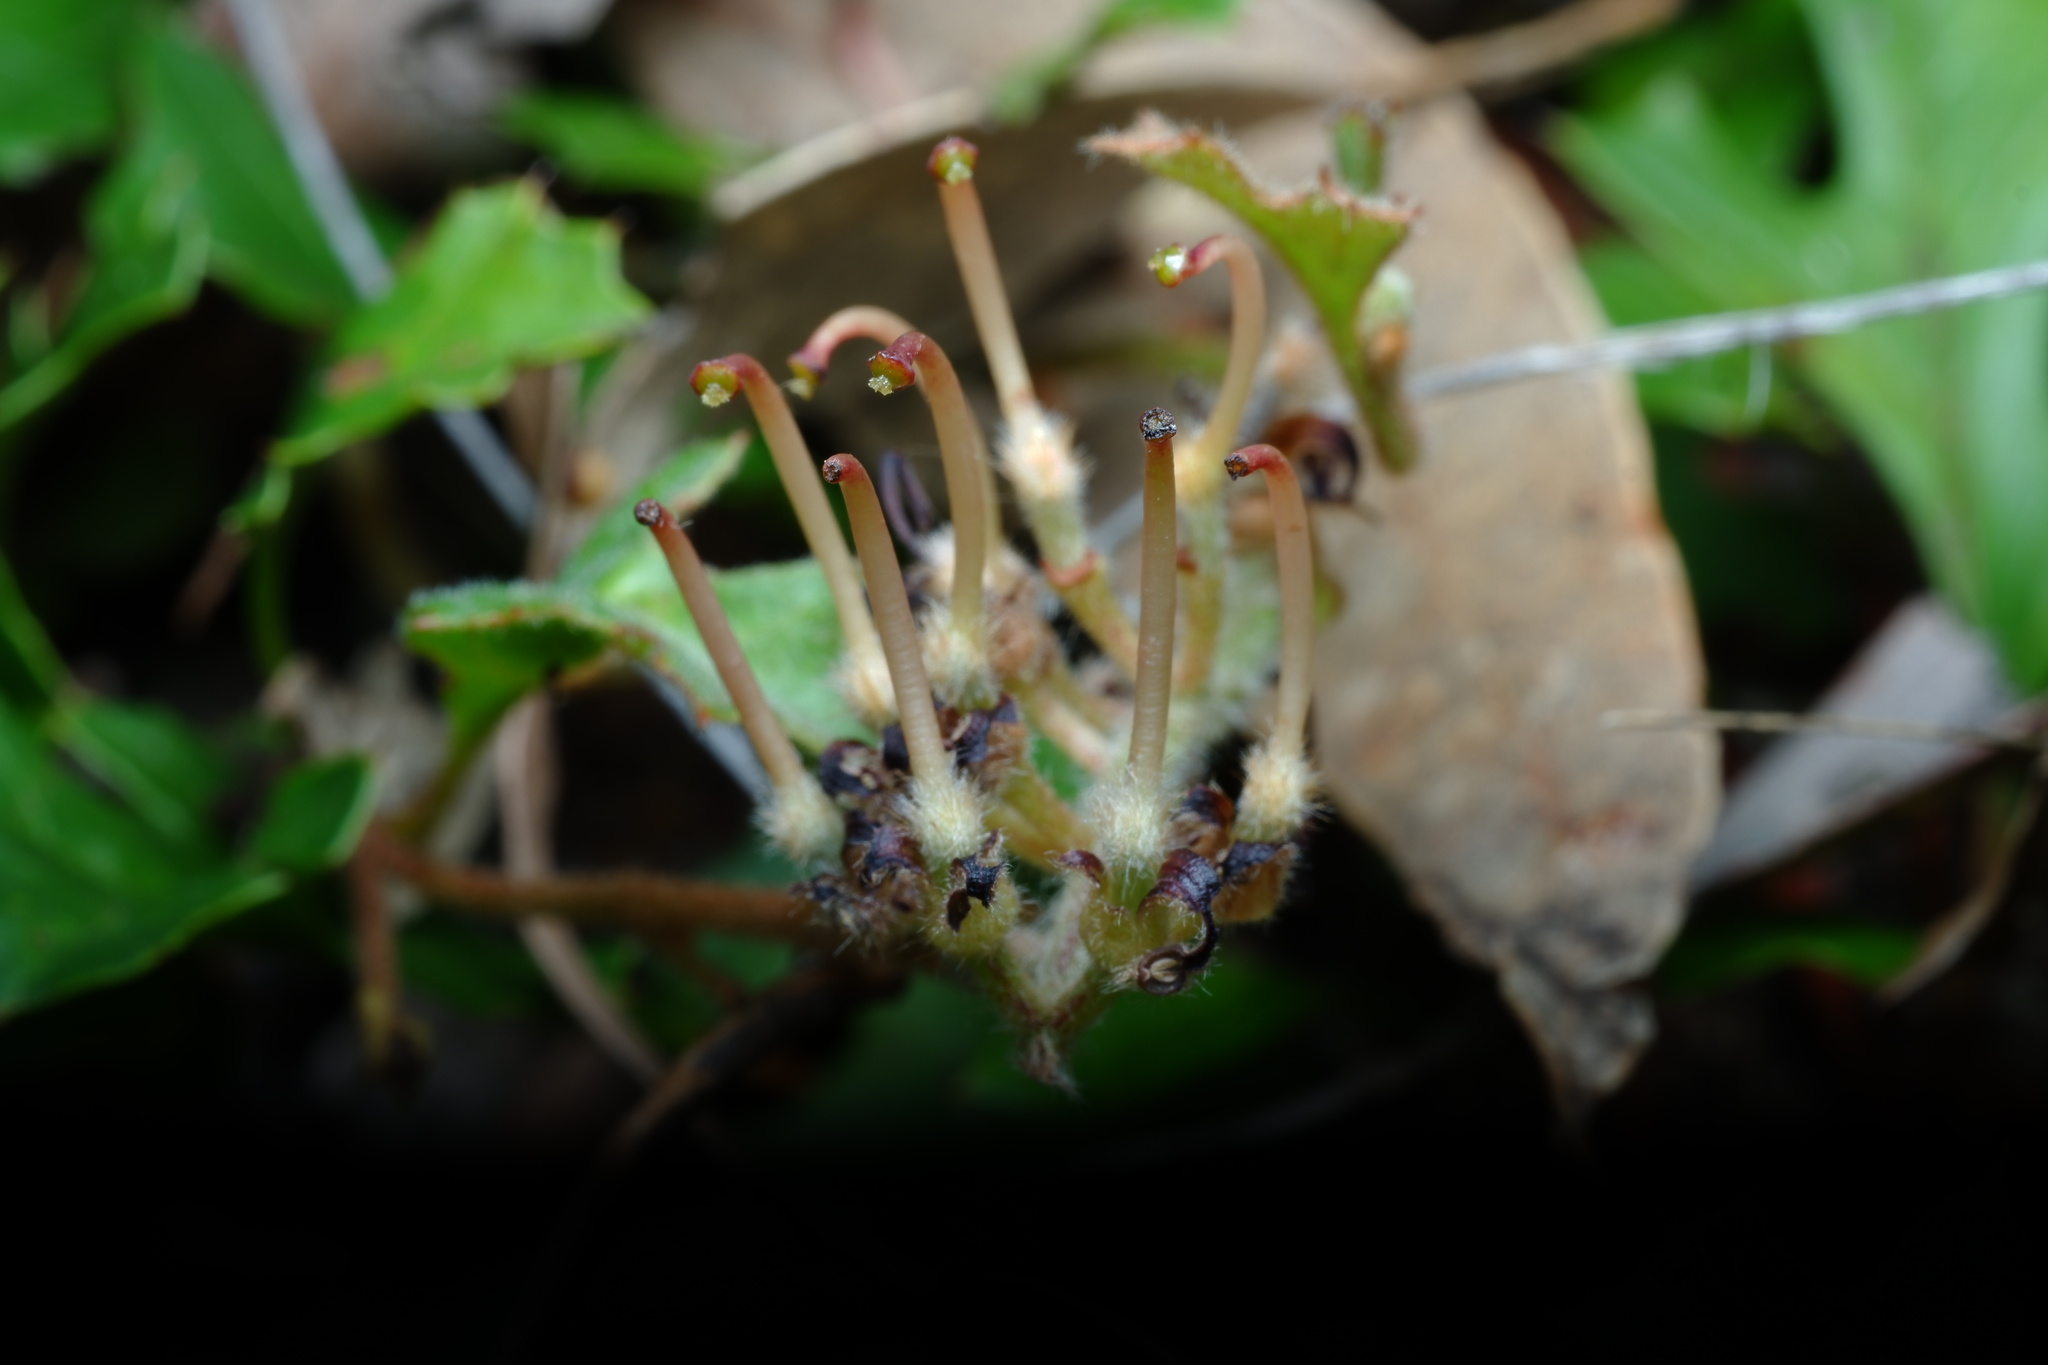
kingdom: Plantae
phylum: Tracheophyta
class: Magnoliopsida
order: Proteales
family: Proteaceae
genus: Grevillea
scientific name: Grevillea obtecta
